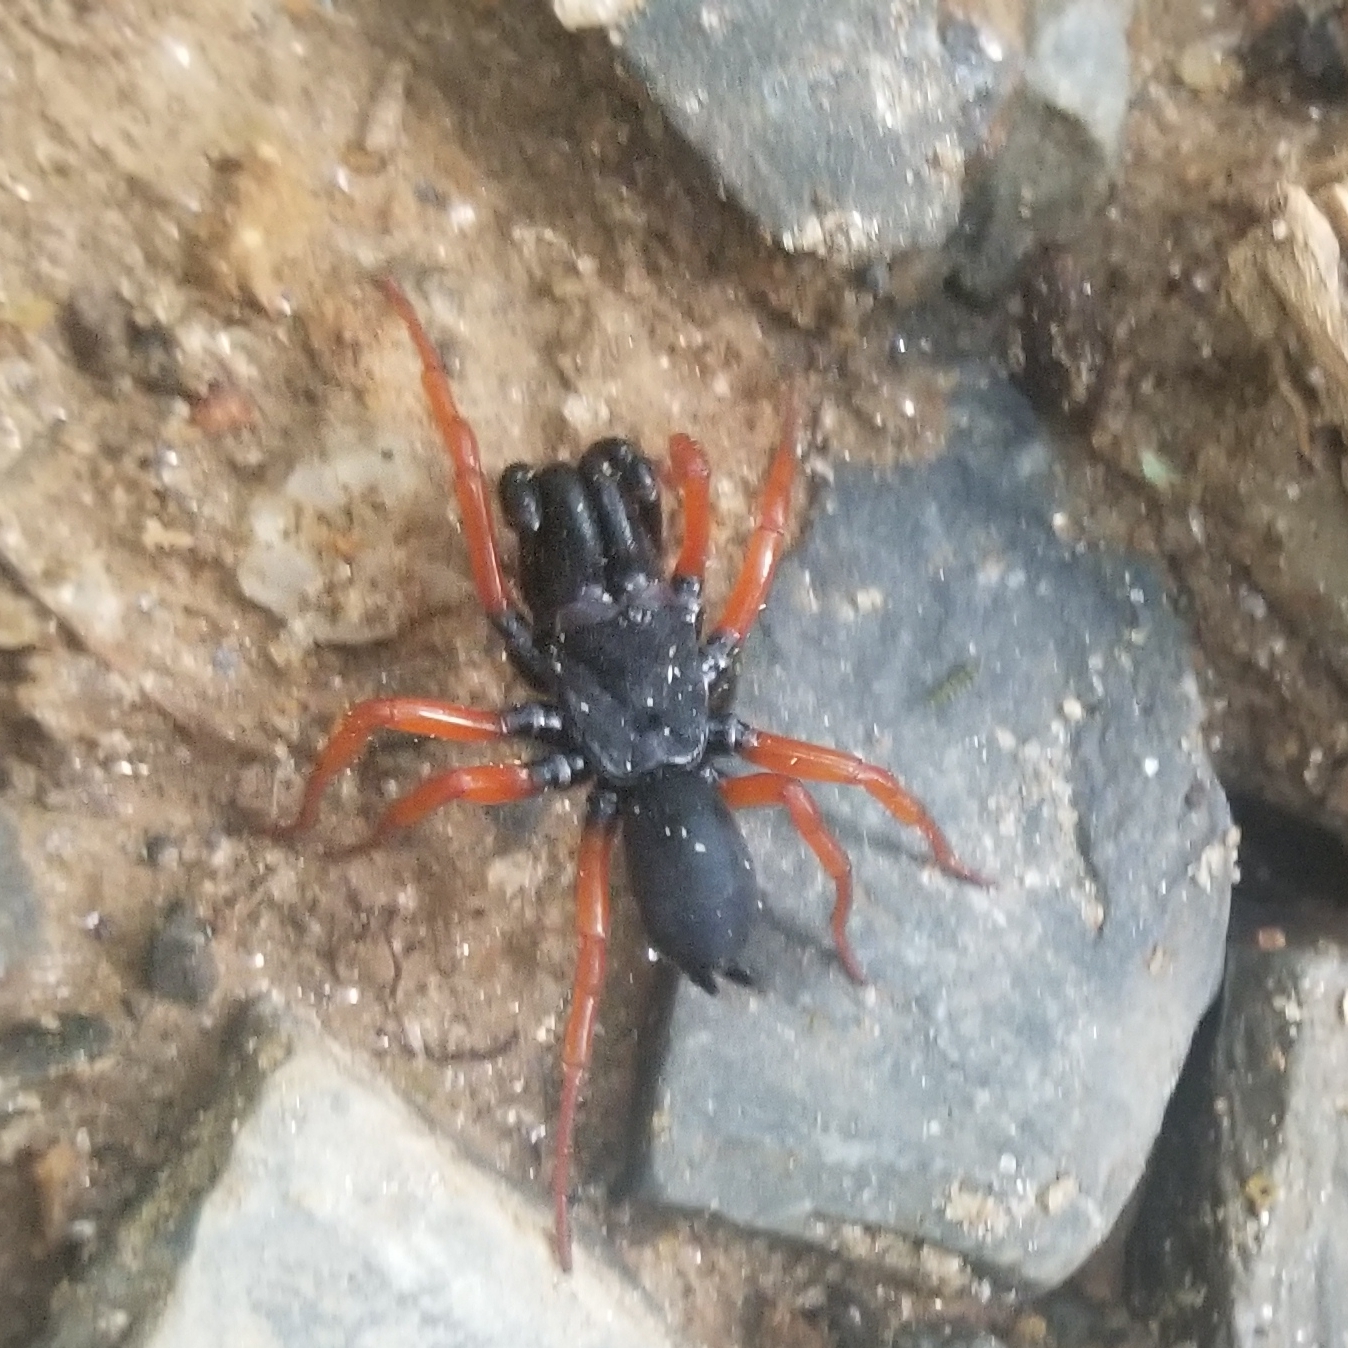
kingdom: Animalia
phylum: Arthropoda
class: Arachnida
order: Araneae
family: Atypidae
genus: Sphodros
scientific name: Sphodros rufipes
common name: Red-legged purseweb spider
